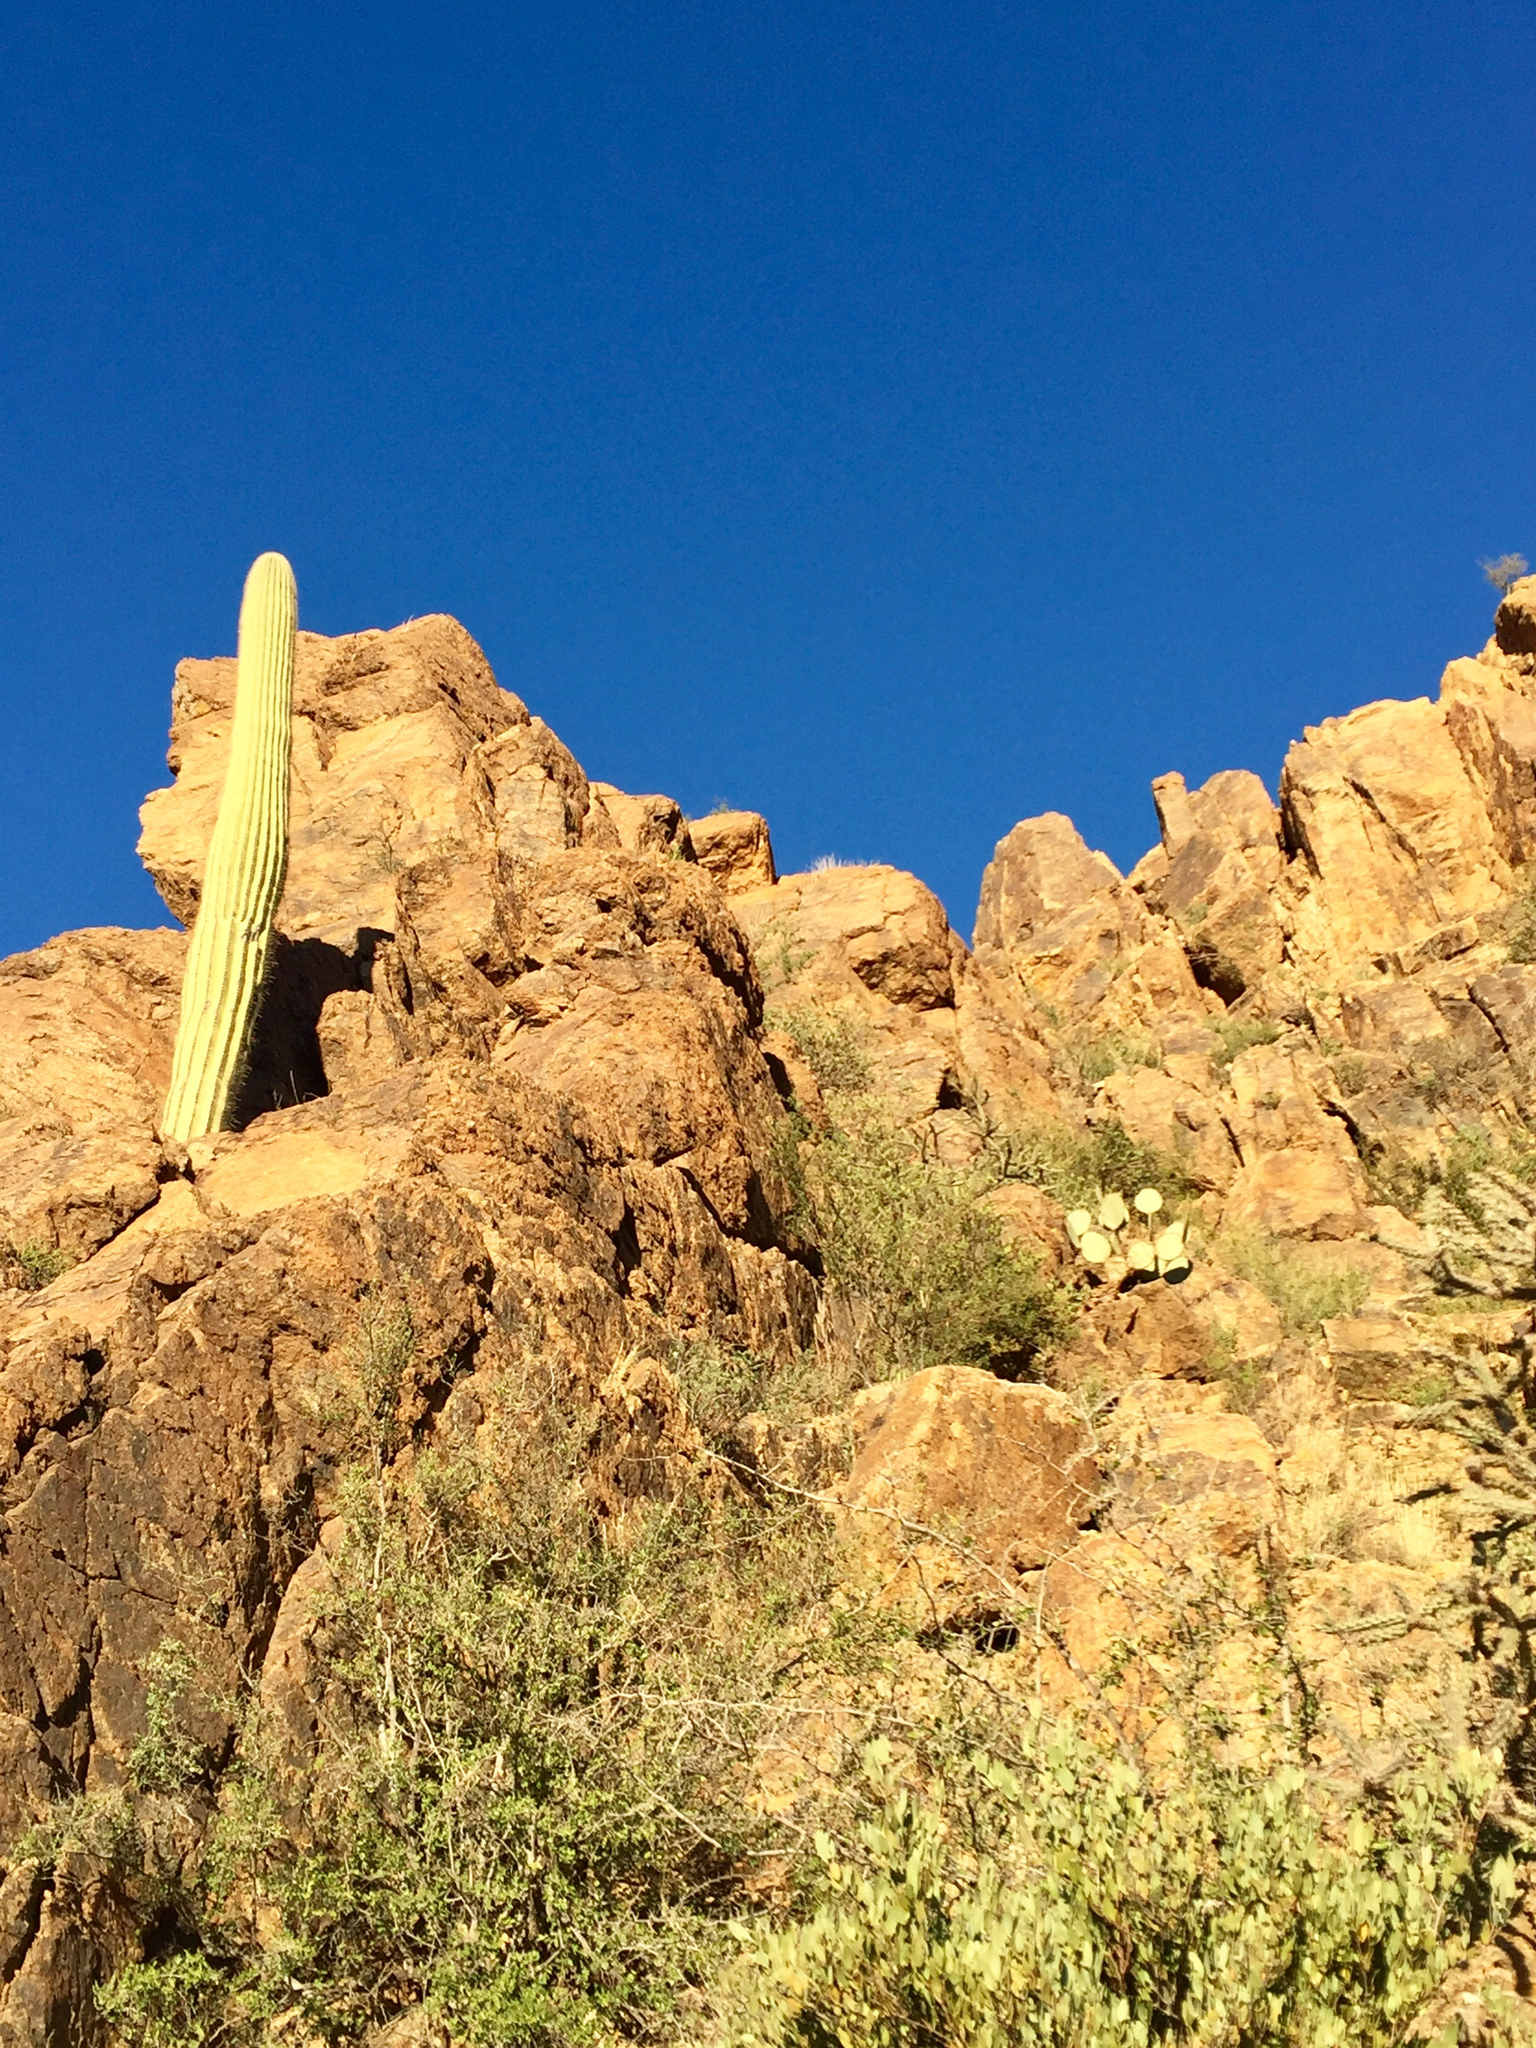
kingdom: Plantae
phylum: Tracheophyta
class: Magnoliopsida
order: Caryophyllales
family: Cactaceae
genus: Carnegiea
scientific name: Carnegiea gigantea
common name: Saguaro
